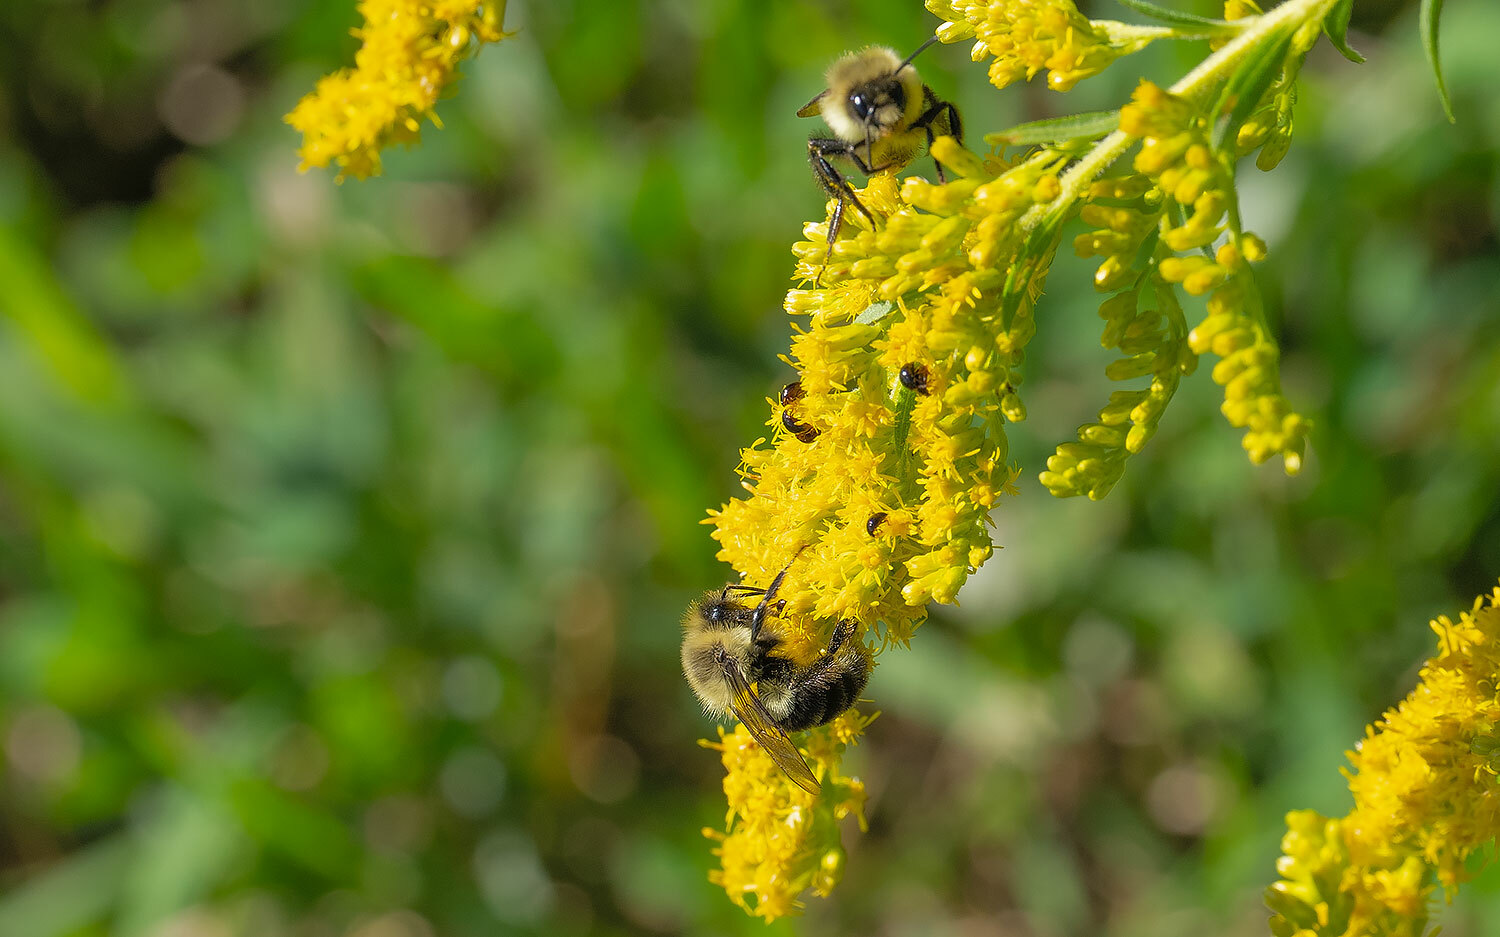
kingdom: Animalia
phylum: Arthropoda
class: Insecta
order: Hymenoptera
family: Apidae
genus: Bombus
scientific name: Bombus impatiens
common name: Common eastern bumble bee
